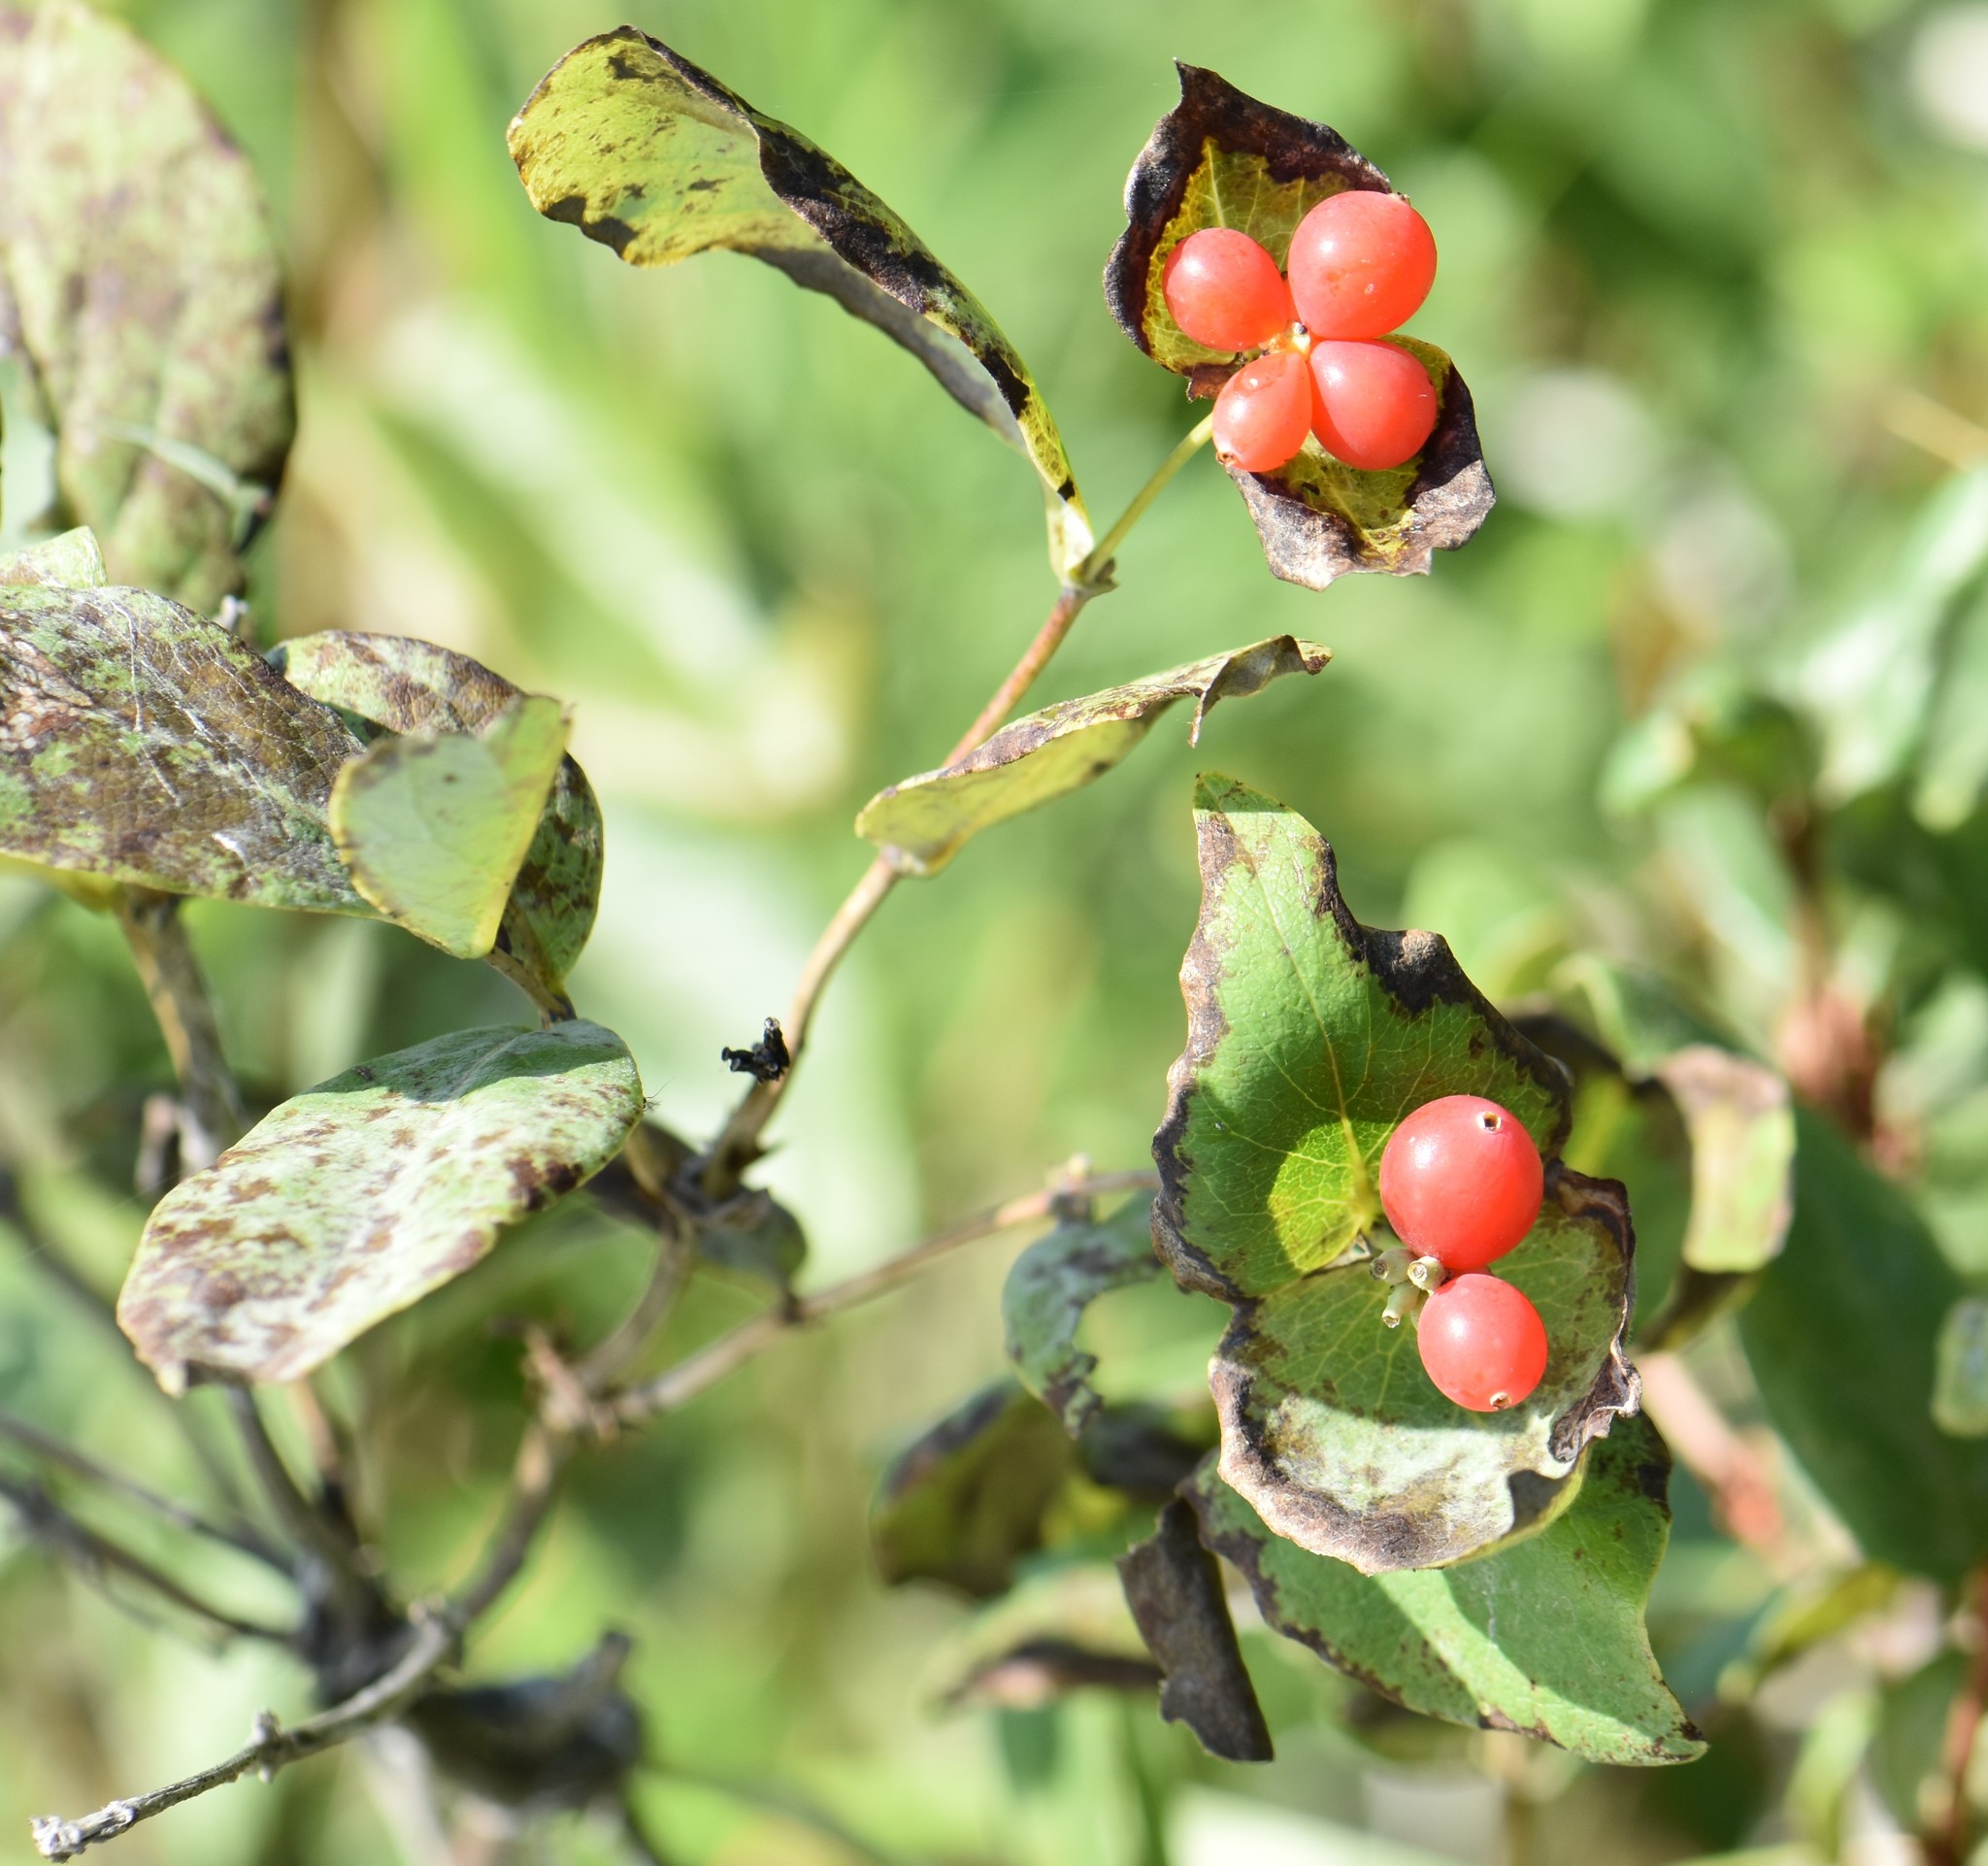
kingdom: Plantae
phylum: Tracheophyta
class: Magnoliopsida
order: Dipsacales
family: Caprifoliaceae
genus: Lonicera
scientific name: Lonicera dioica
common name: Limber honeysuckle
